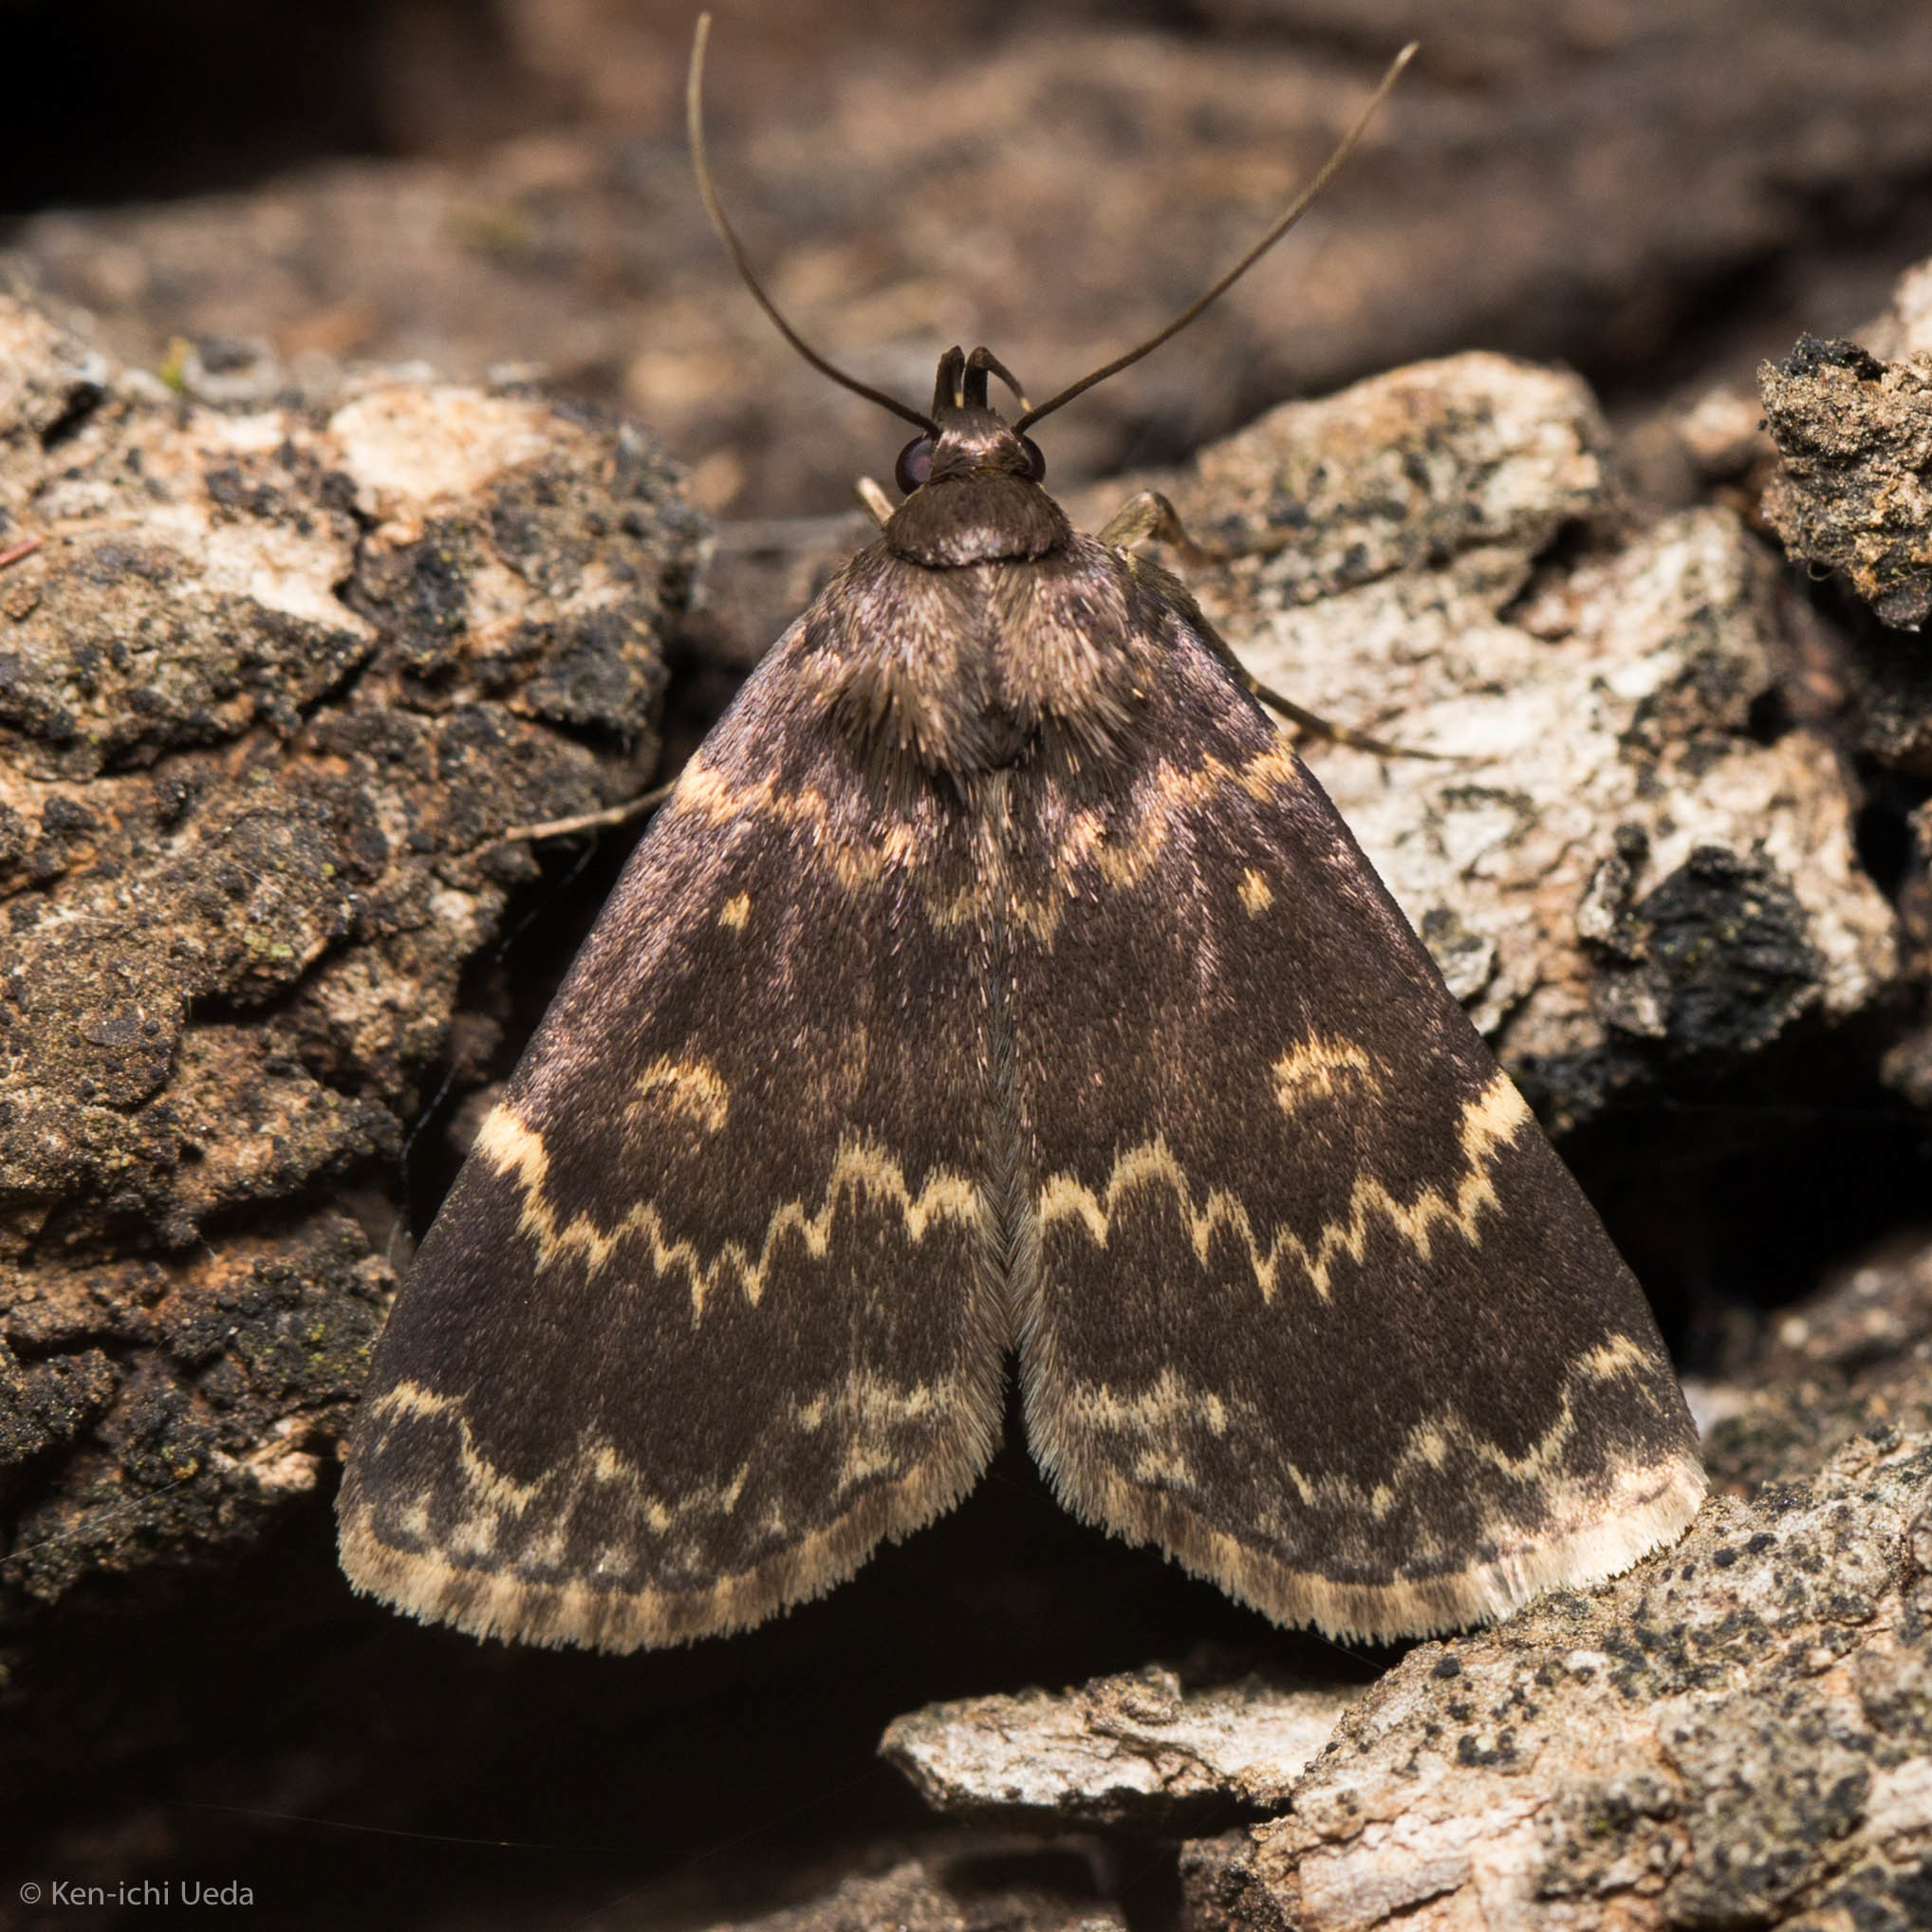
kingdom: Animalia
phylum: Arthropoda
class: Insecta
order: Lepidoptera
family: Erebidae
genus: Idia
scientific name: Idia lubricalis
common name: Twin-striped tabby
